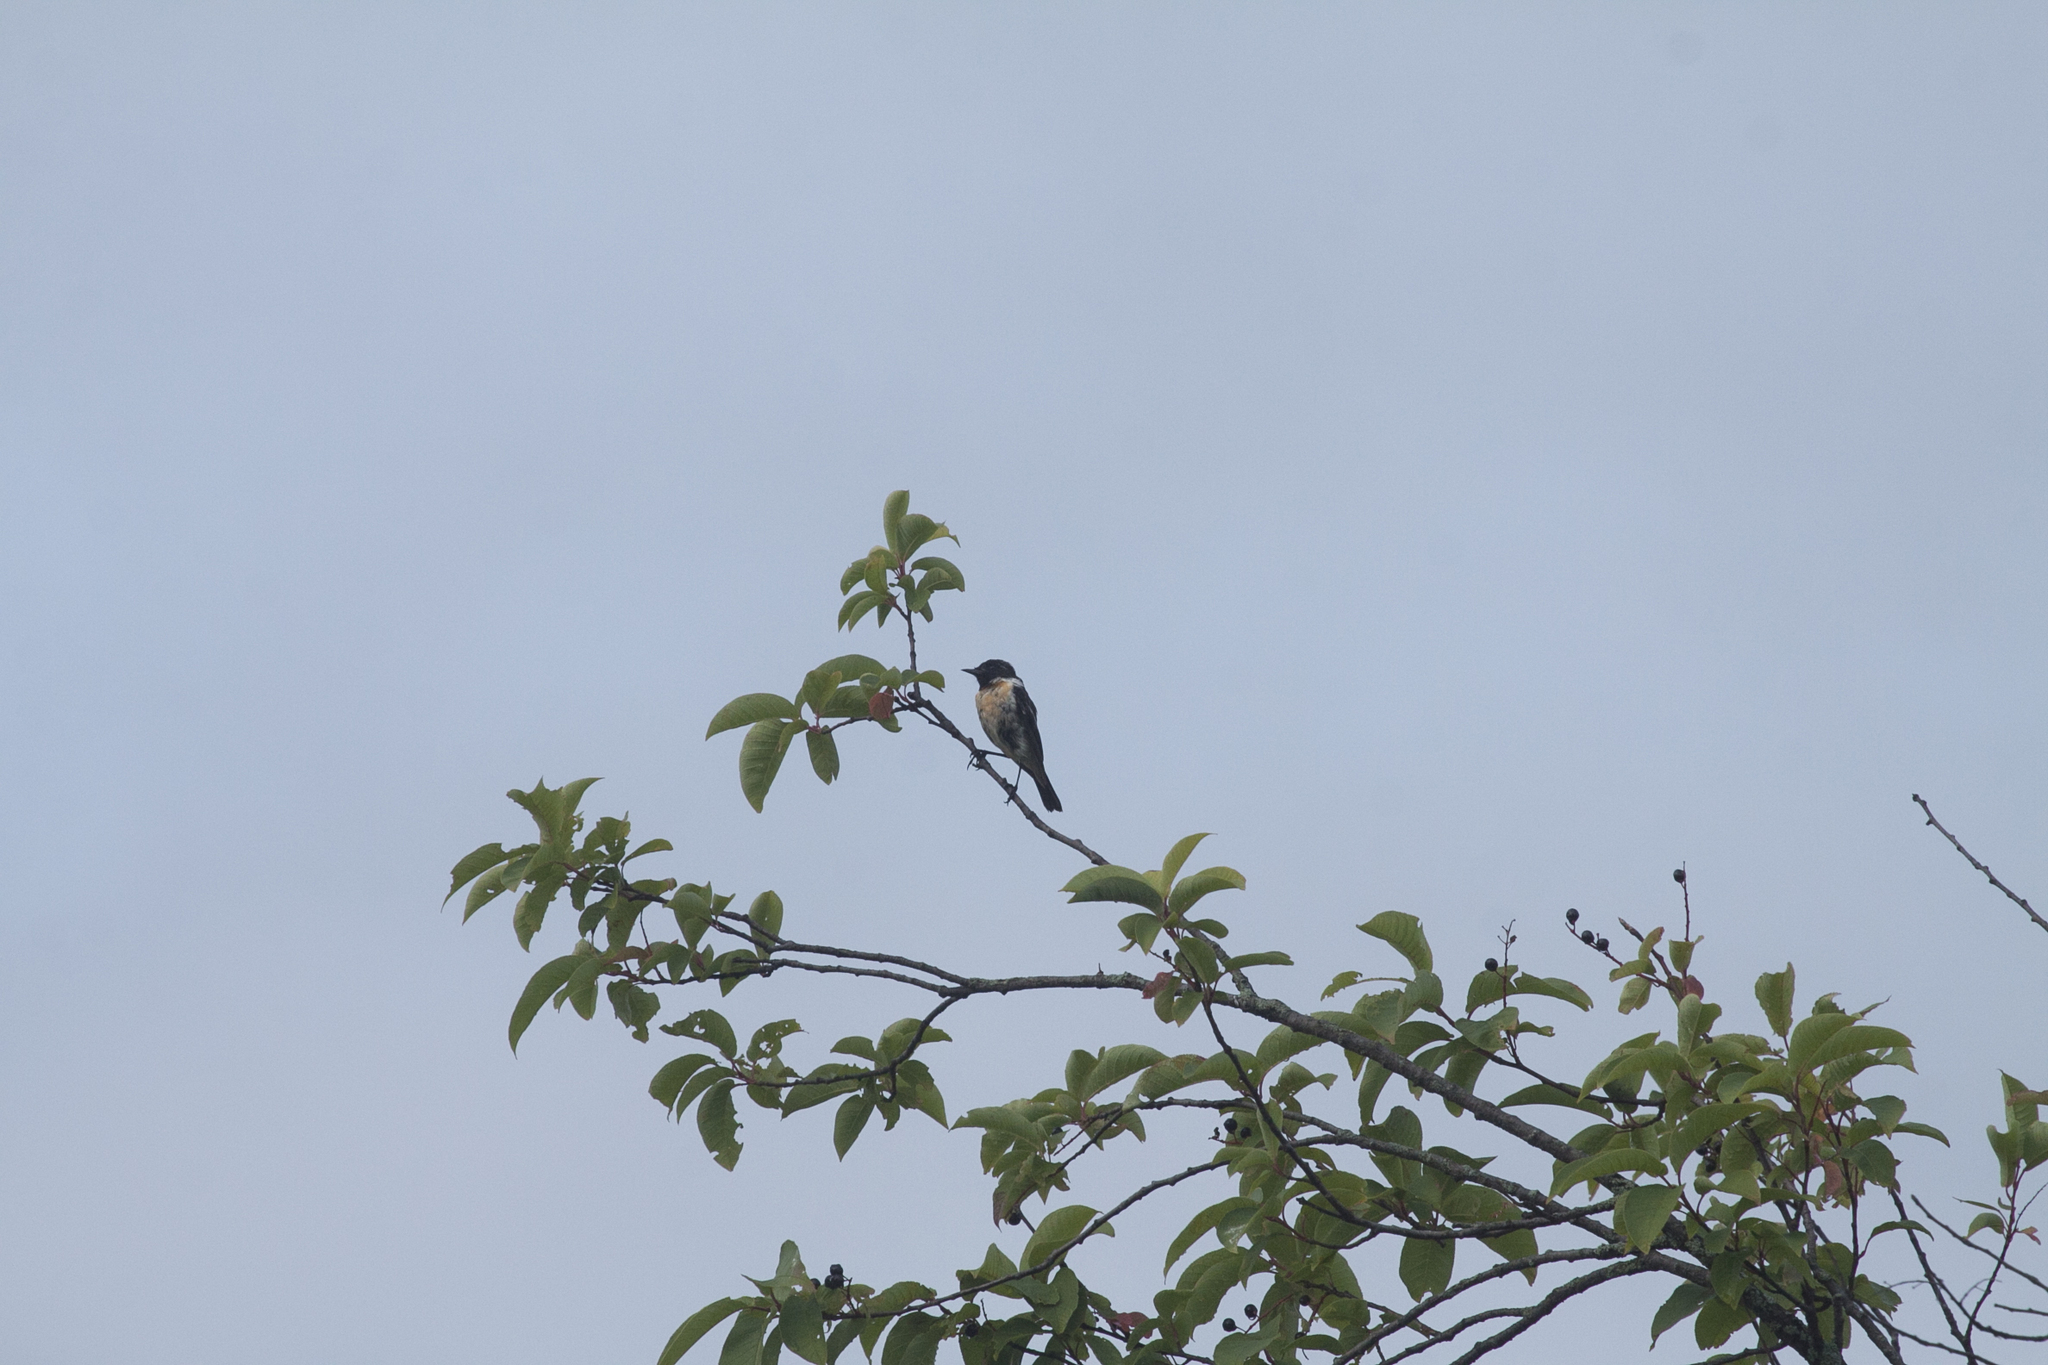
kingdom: Animalia
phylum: Chordata
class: Aves
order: Passeriformes
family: Muscicapidae
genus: Saxicola
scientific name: Saxicola maurus
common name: Siberian stonechat
